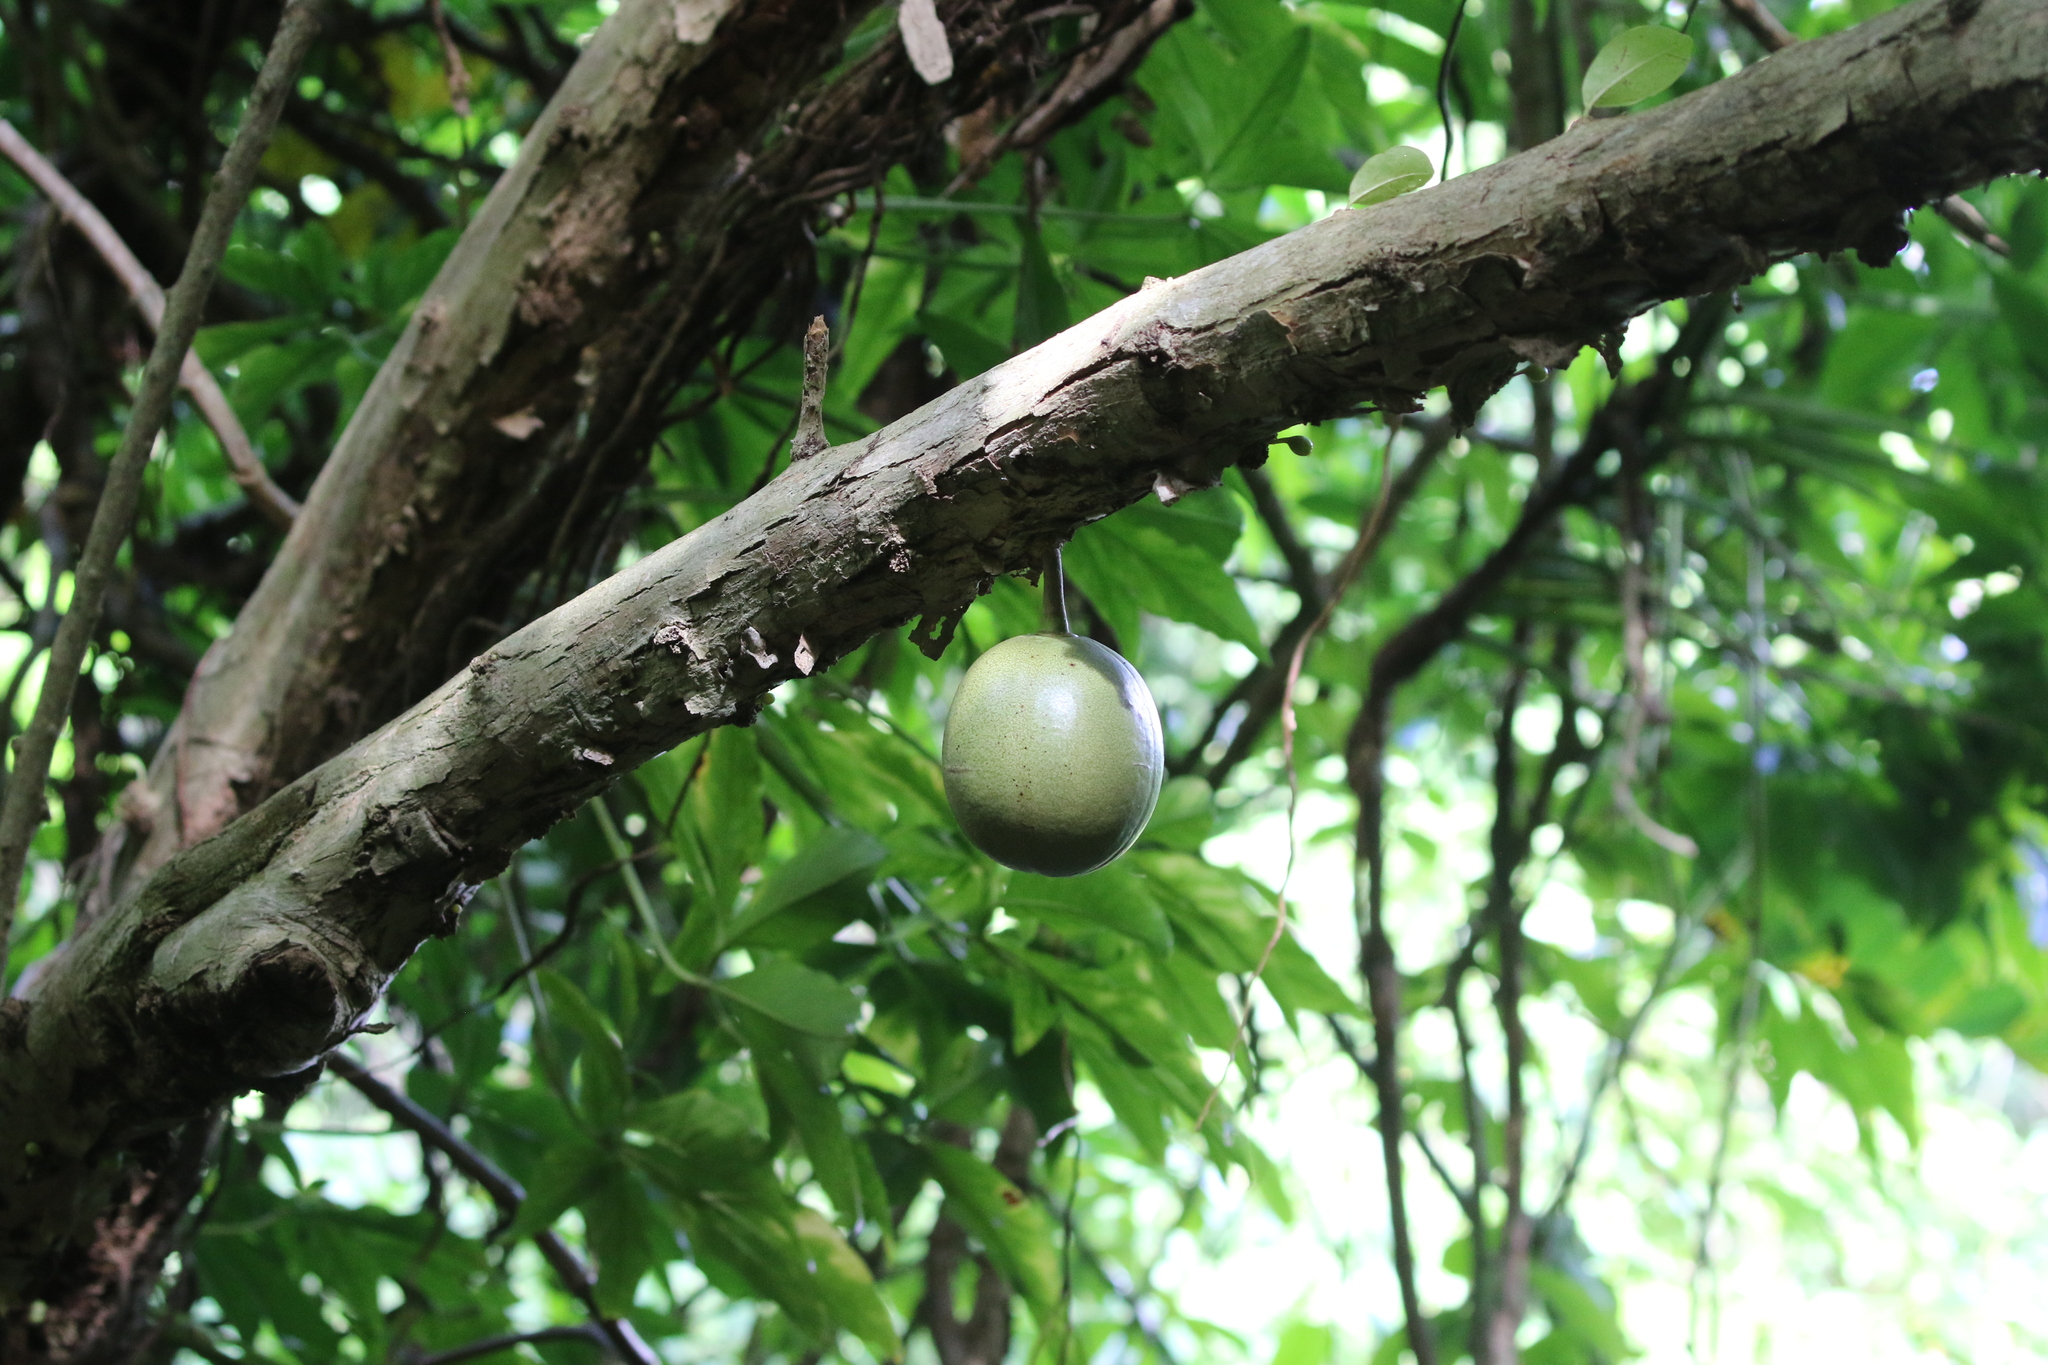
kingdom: Plantae
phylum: Tracheophyta
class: Magnoliopsida
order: Lamiales
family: Bignoniaceae
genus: Crescentia
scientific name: Crescentia cujete
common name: Calabash
